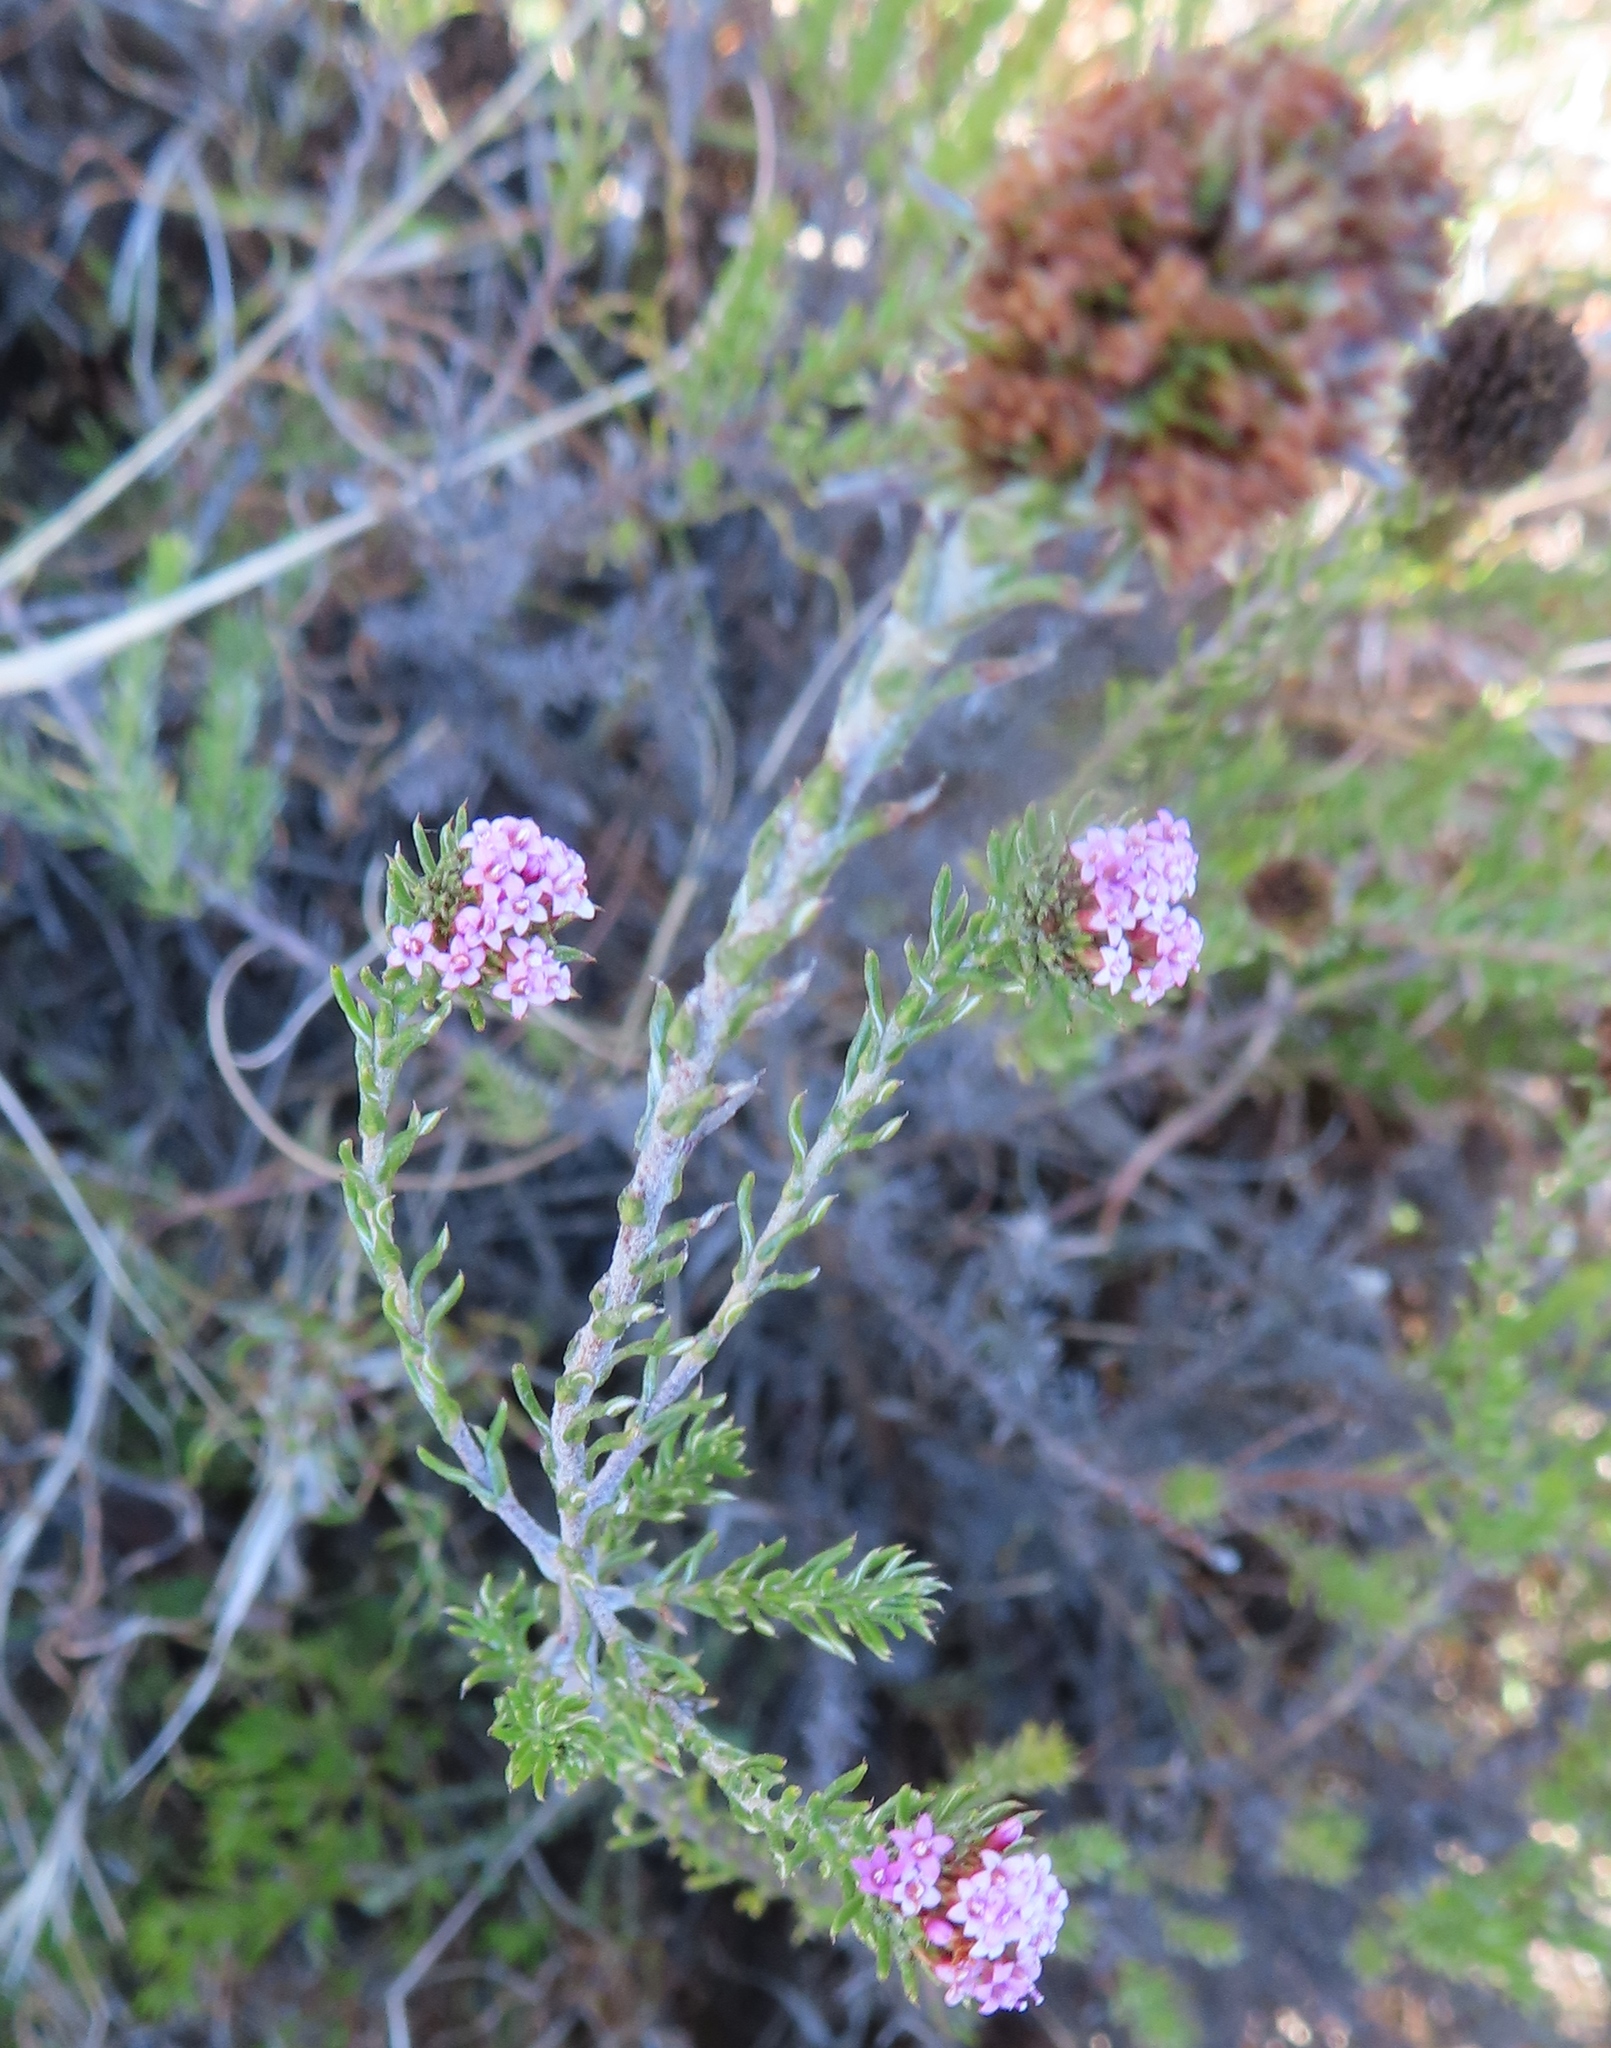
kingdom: Plantae
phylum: Tracheophyta
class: Magnoliopsida
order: Asterales
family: Asteraceae
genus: Stoebe
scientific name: Stoebe capitata
